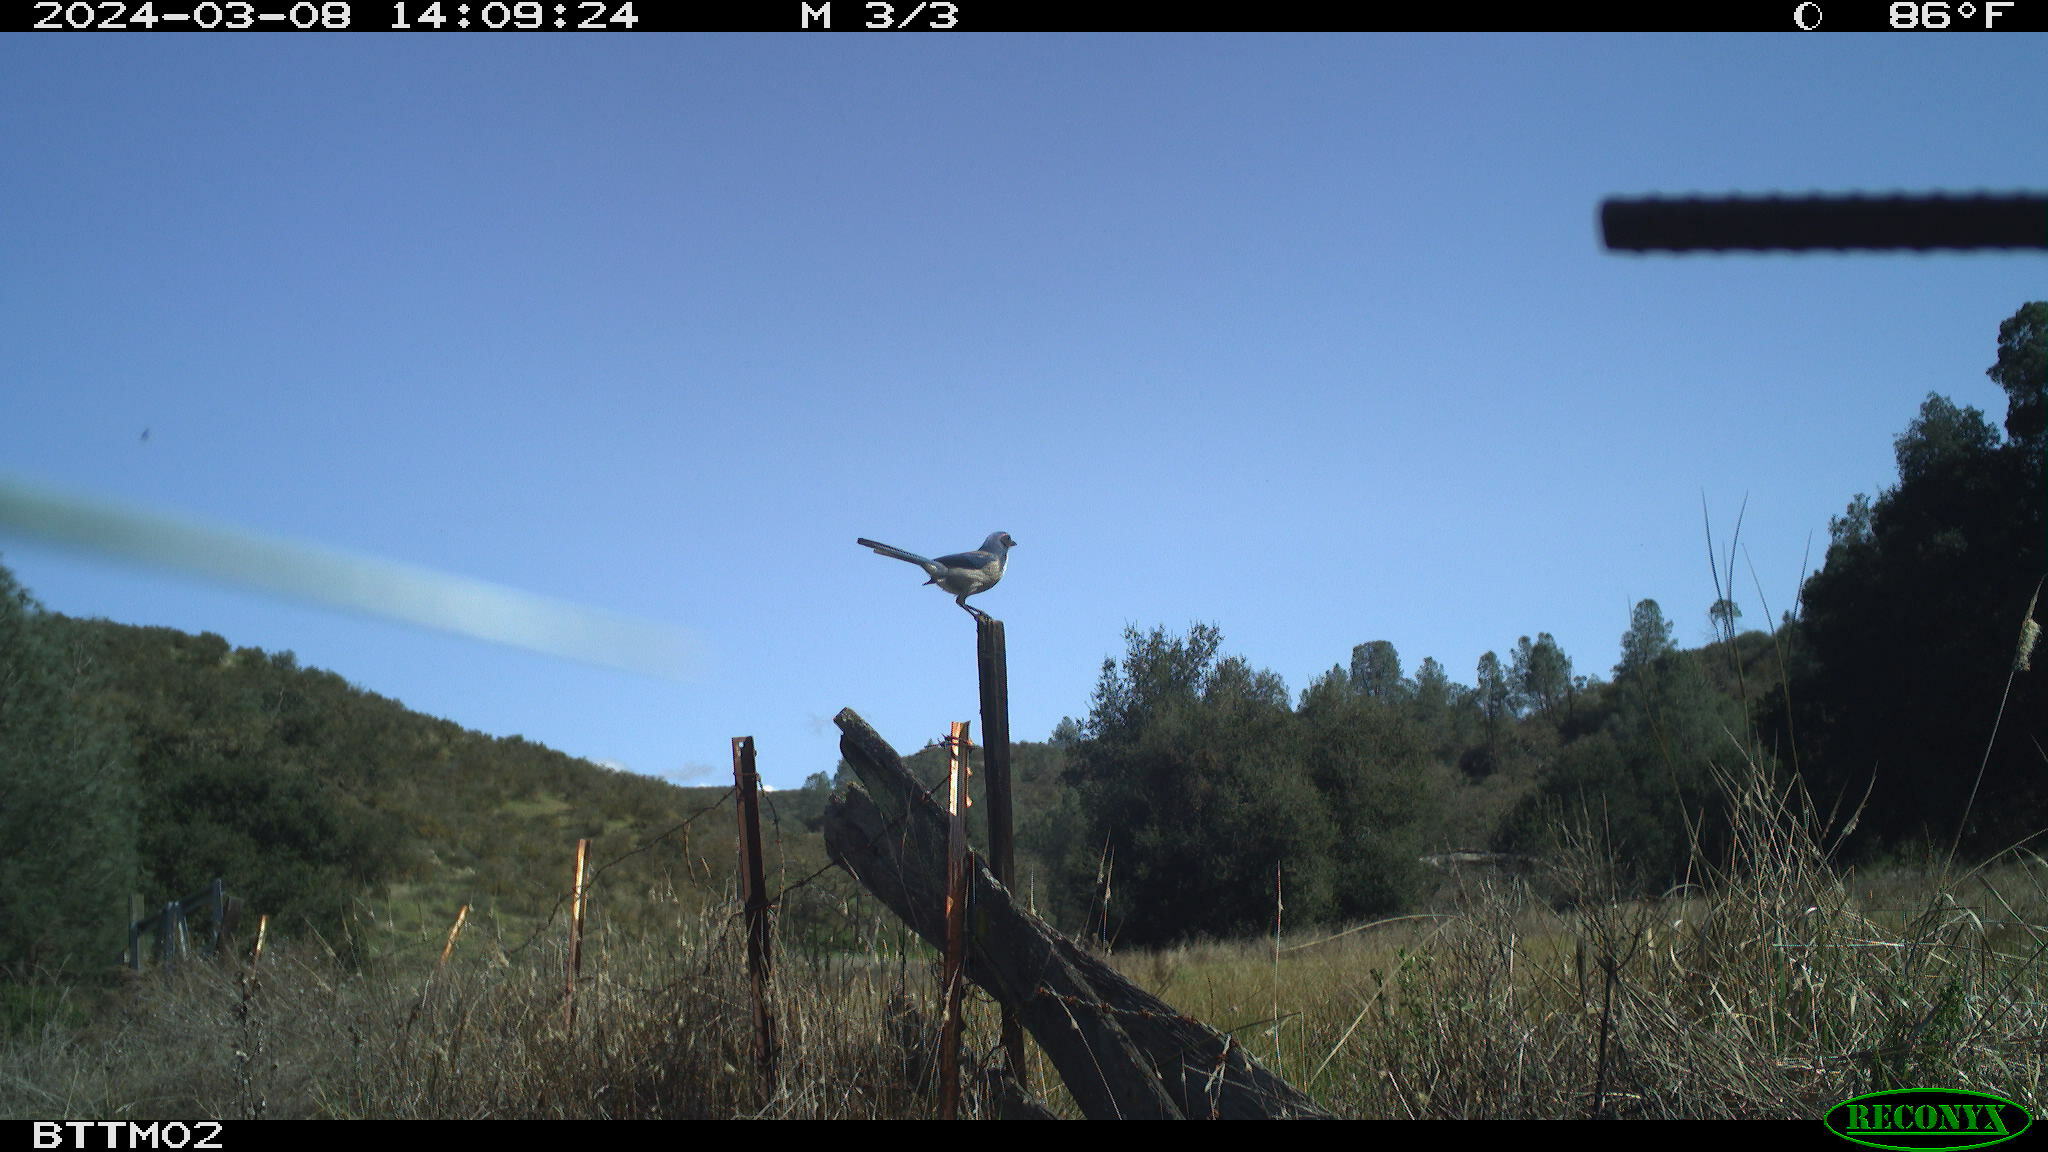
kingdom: Animalia
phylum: Chordata
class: Aves
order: Passeriformes
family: Corvidae
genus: Aphelocoma
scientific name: Aphelocoma californica
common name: California scrub-jay
